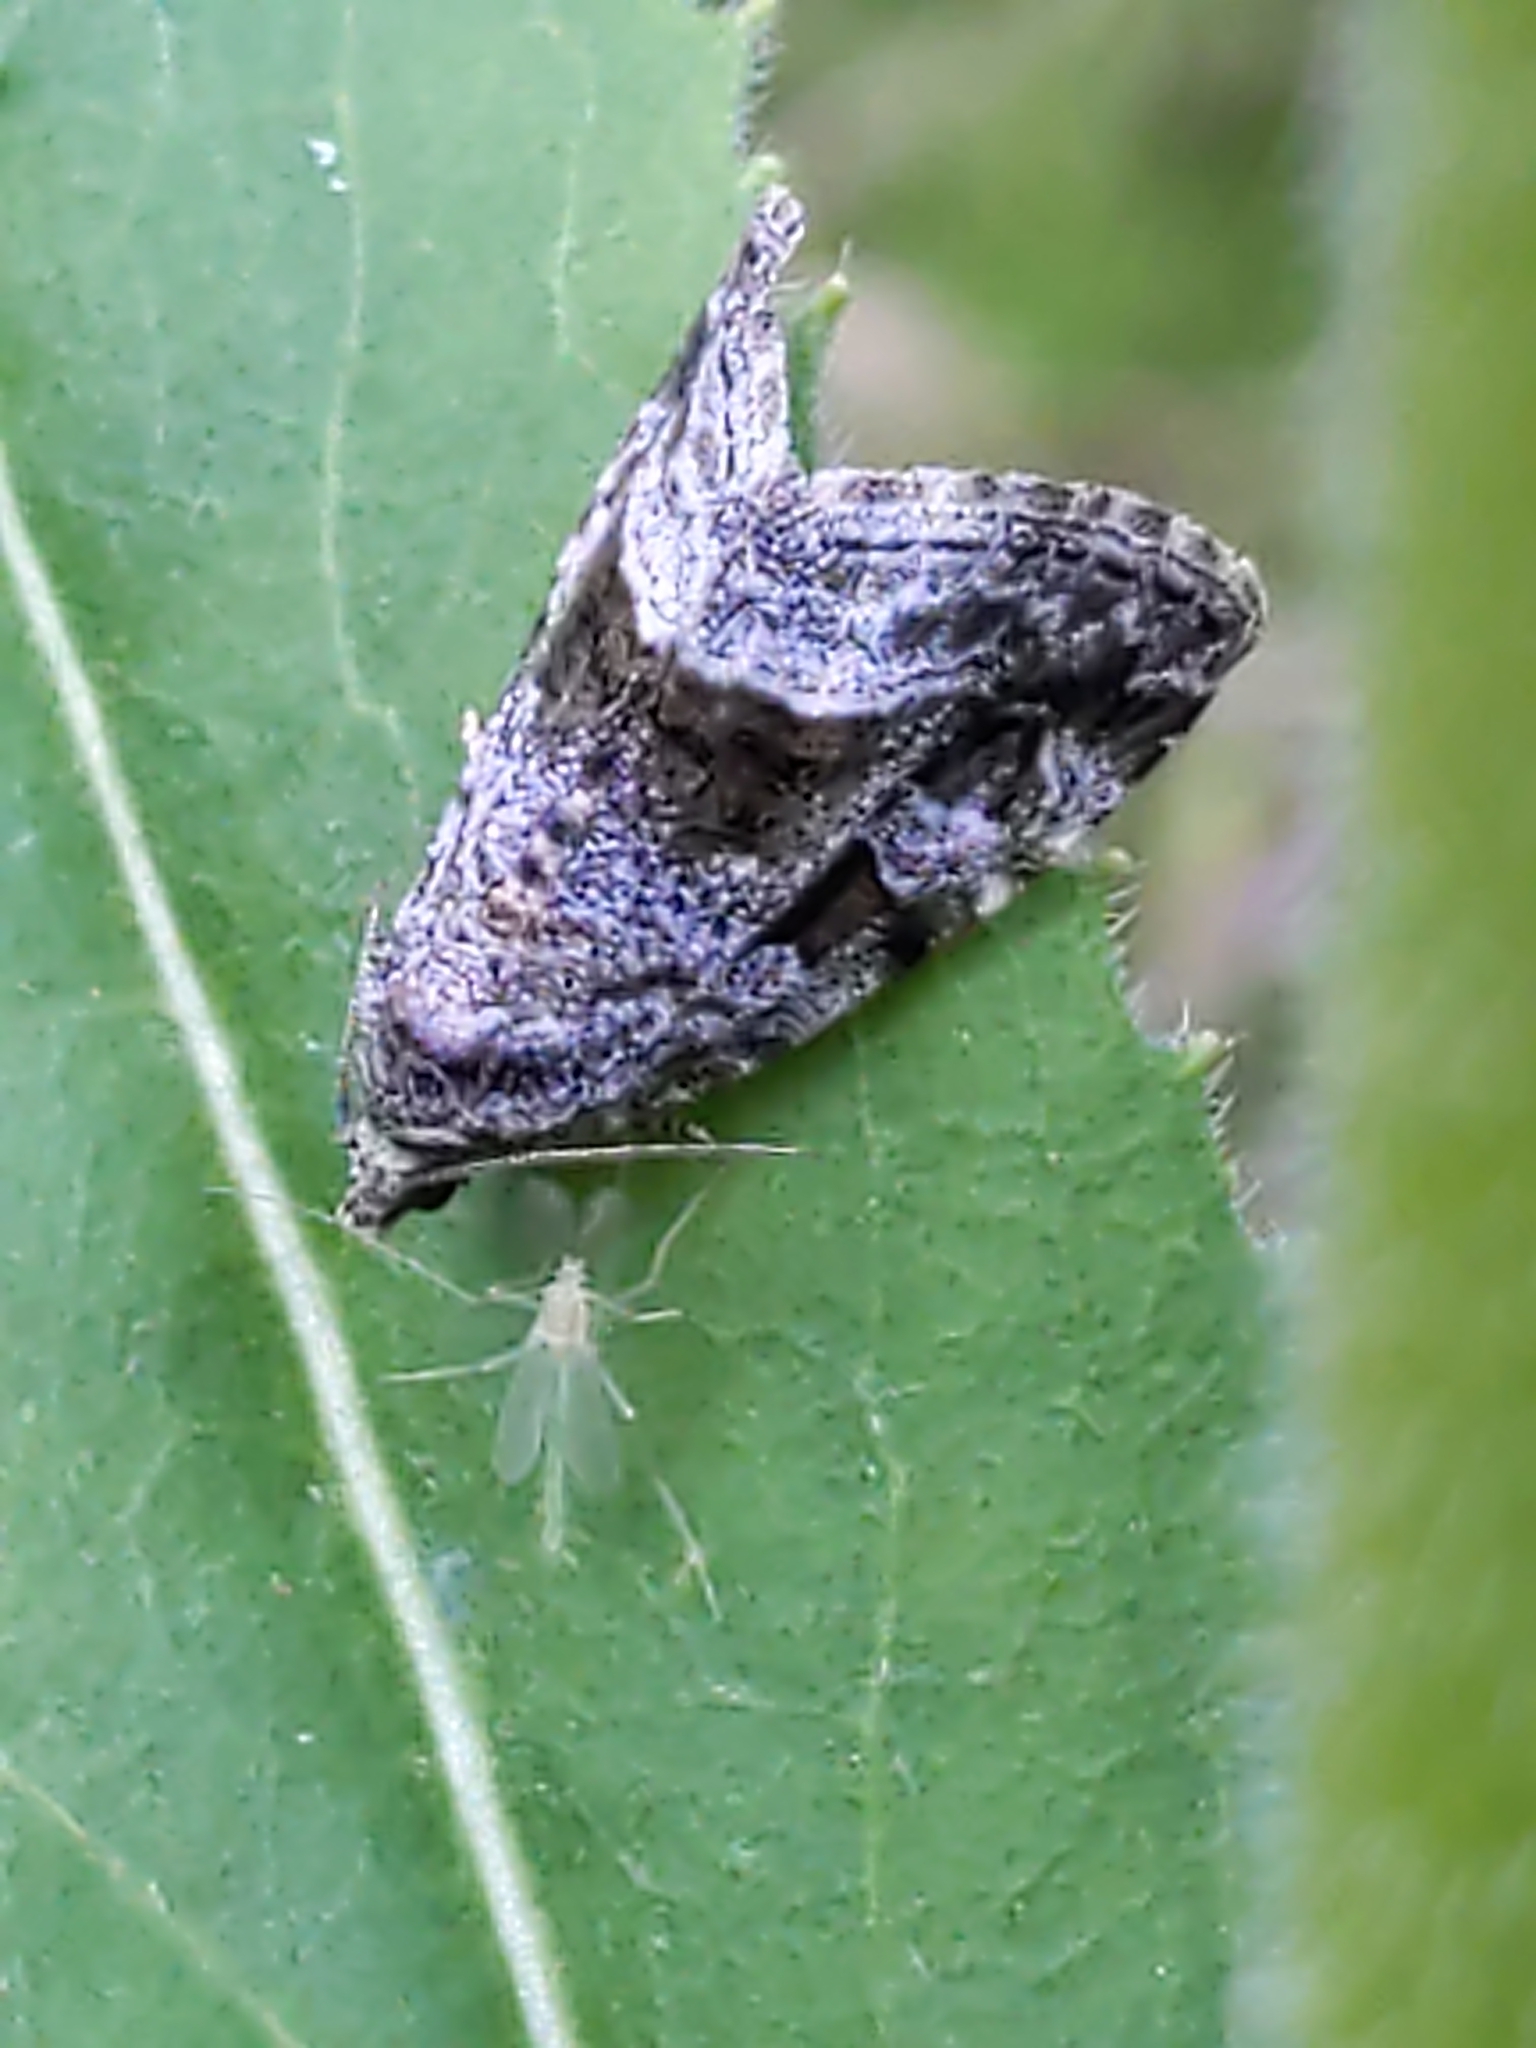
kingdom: Animalia
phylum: Arthropoda
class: Insecta
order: Lepidoptera
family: Noctuidae
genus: Protodeltote
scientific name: Protodeltote muscosula
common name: Large mossy glyph
